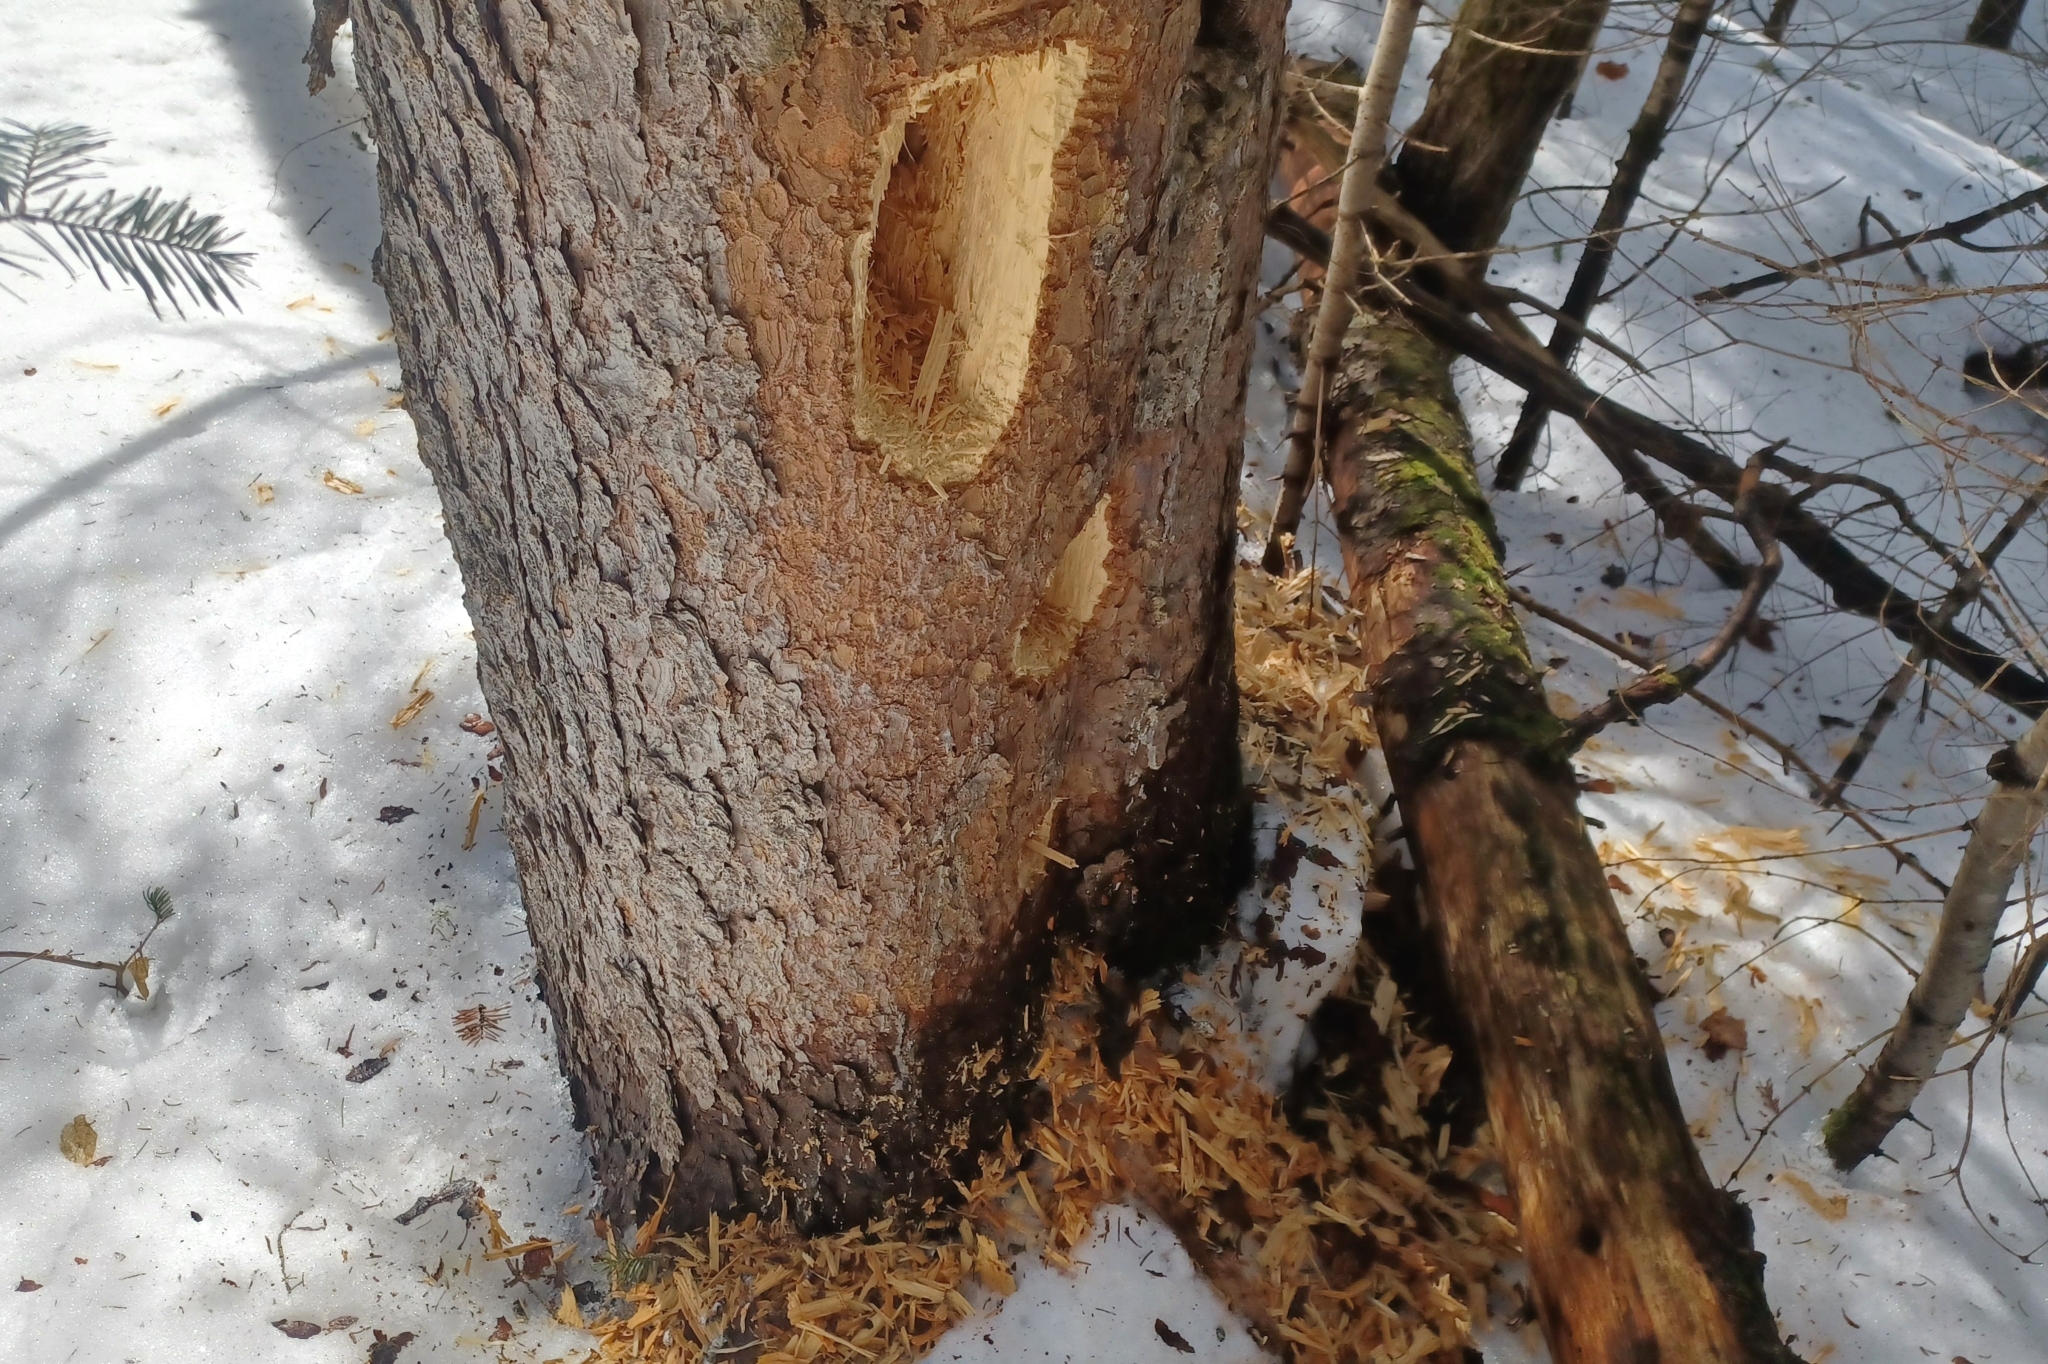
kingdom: Animalia
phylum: Chordata
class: Aves
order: Piciformes
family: Picidae
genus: Dryocopus
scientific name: Dryocopus pileatus
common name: Pileated woodpecker
